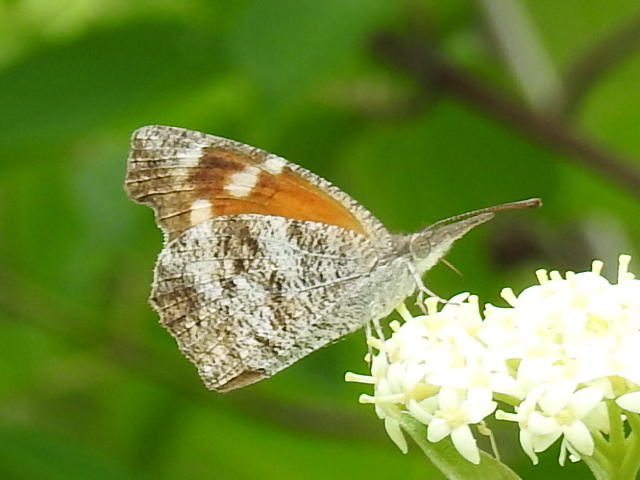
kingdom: Animalia
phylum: Arthropoda
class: Insecta
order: Lepidoptera
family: Nymphalidae
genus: Libytheana
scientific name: Libytheana carinenta
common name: American snout
